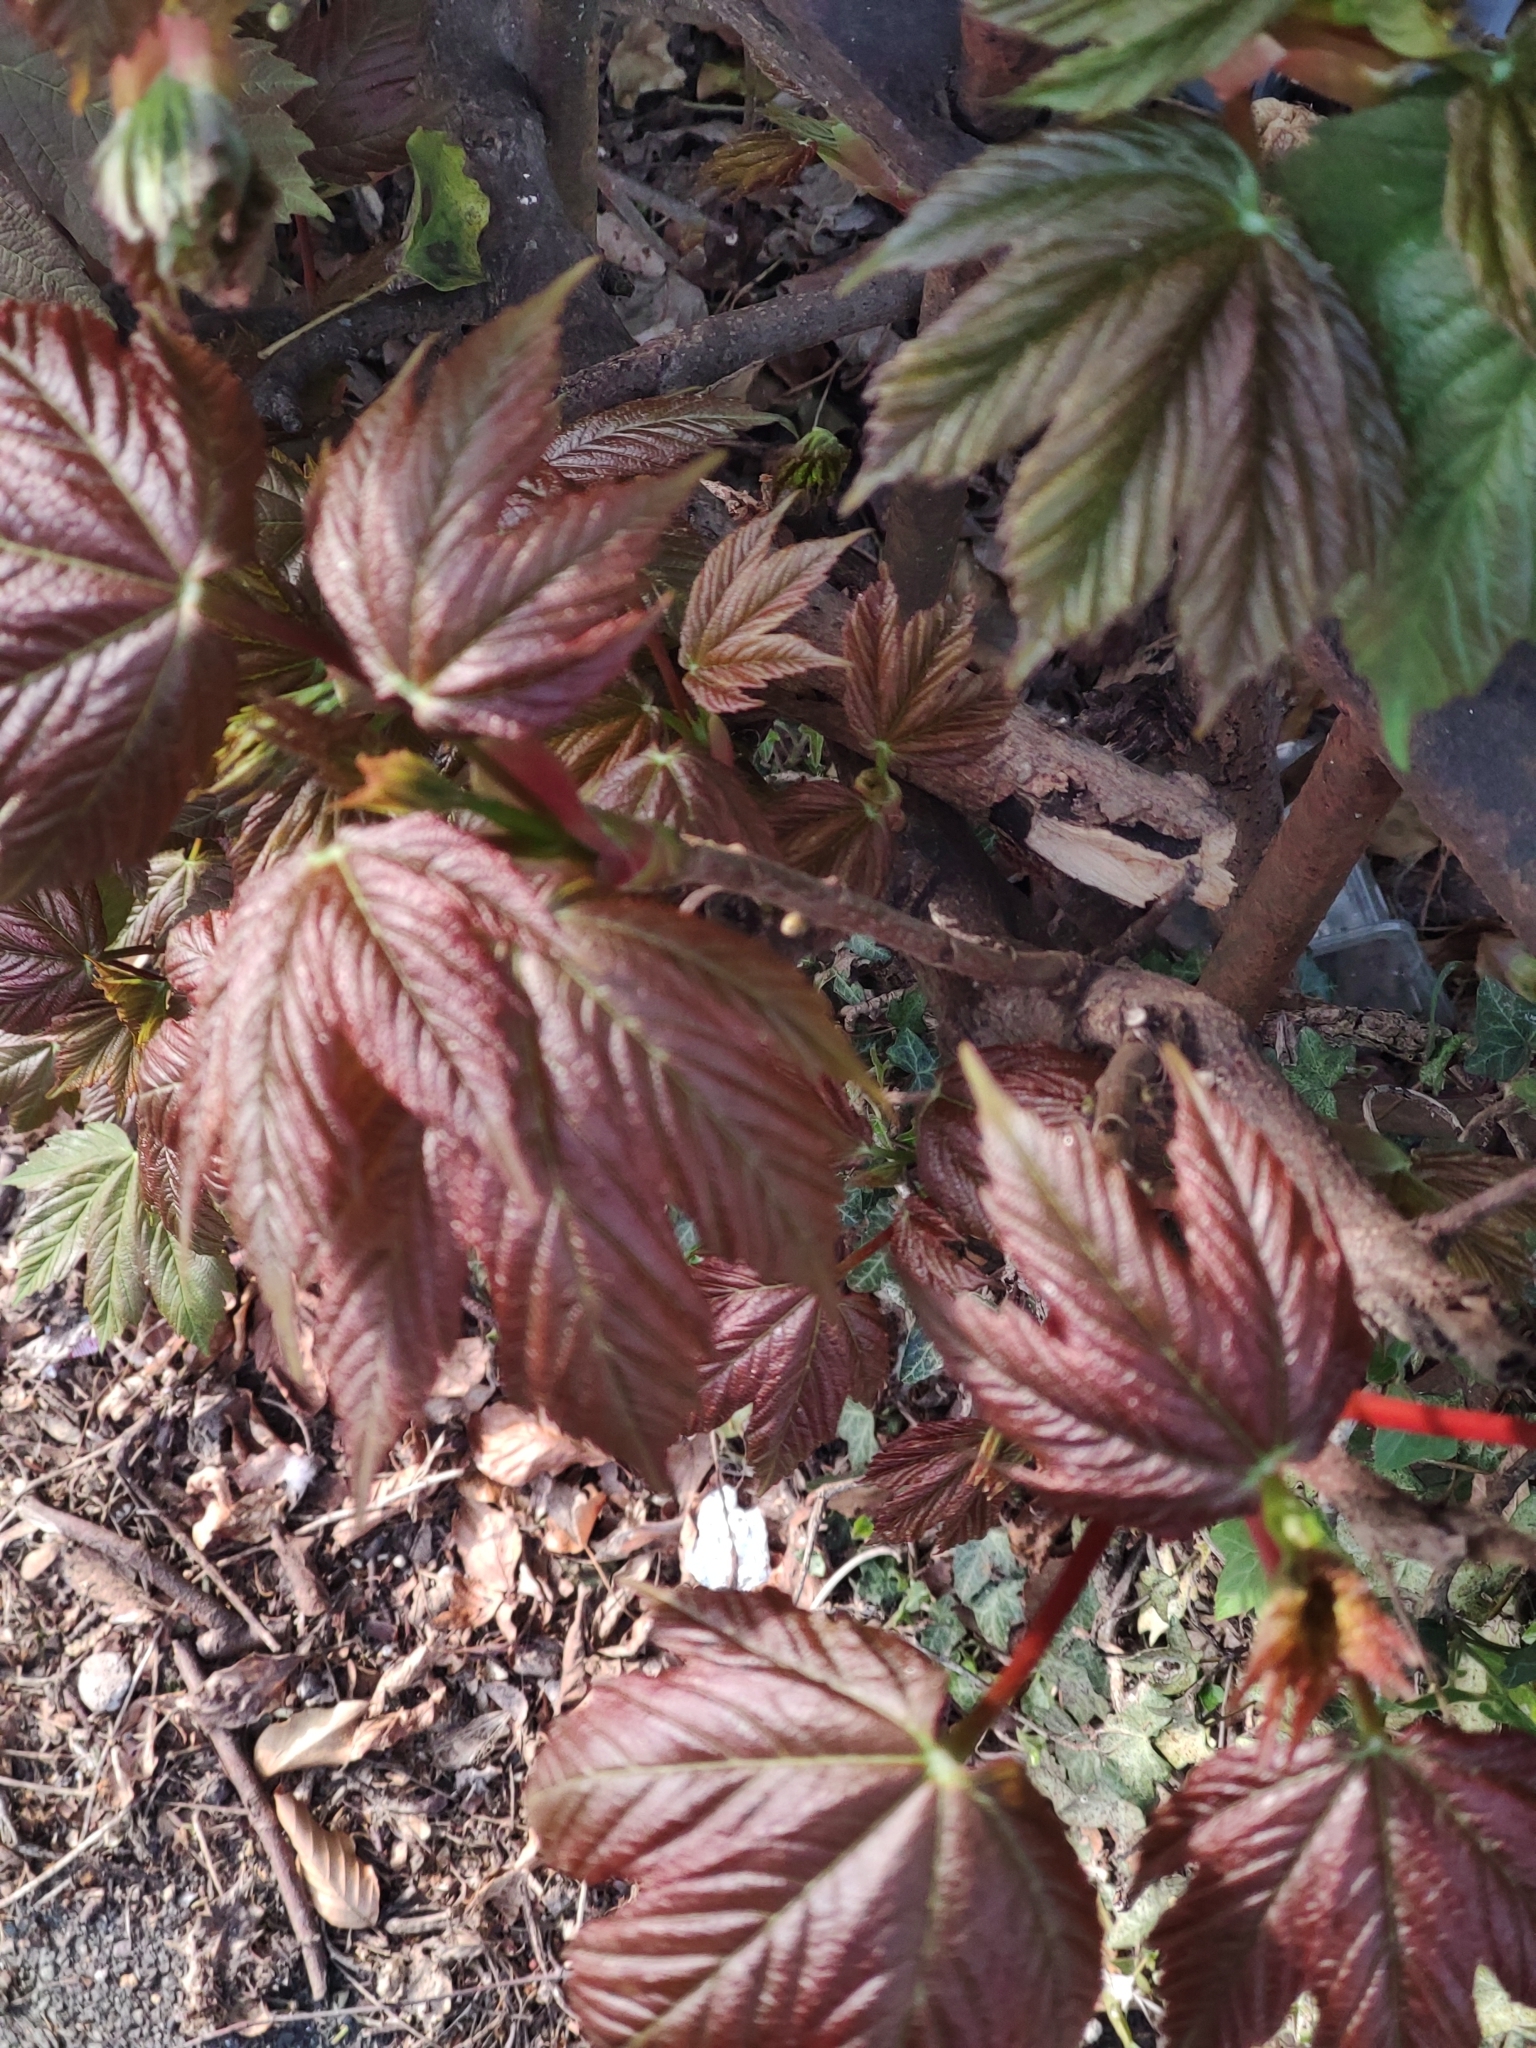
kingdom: Plantae
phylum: Tracheophyta
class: Magnoliopsida
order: Sapindales
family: Sapindaceae
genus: Acer
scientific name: Acer pseudoplatanus
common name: Sycamore
